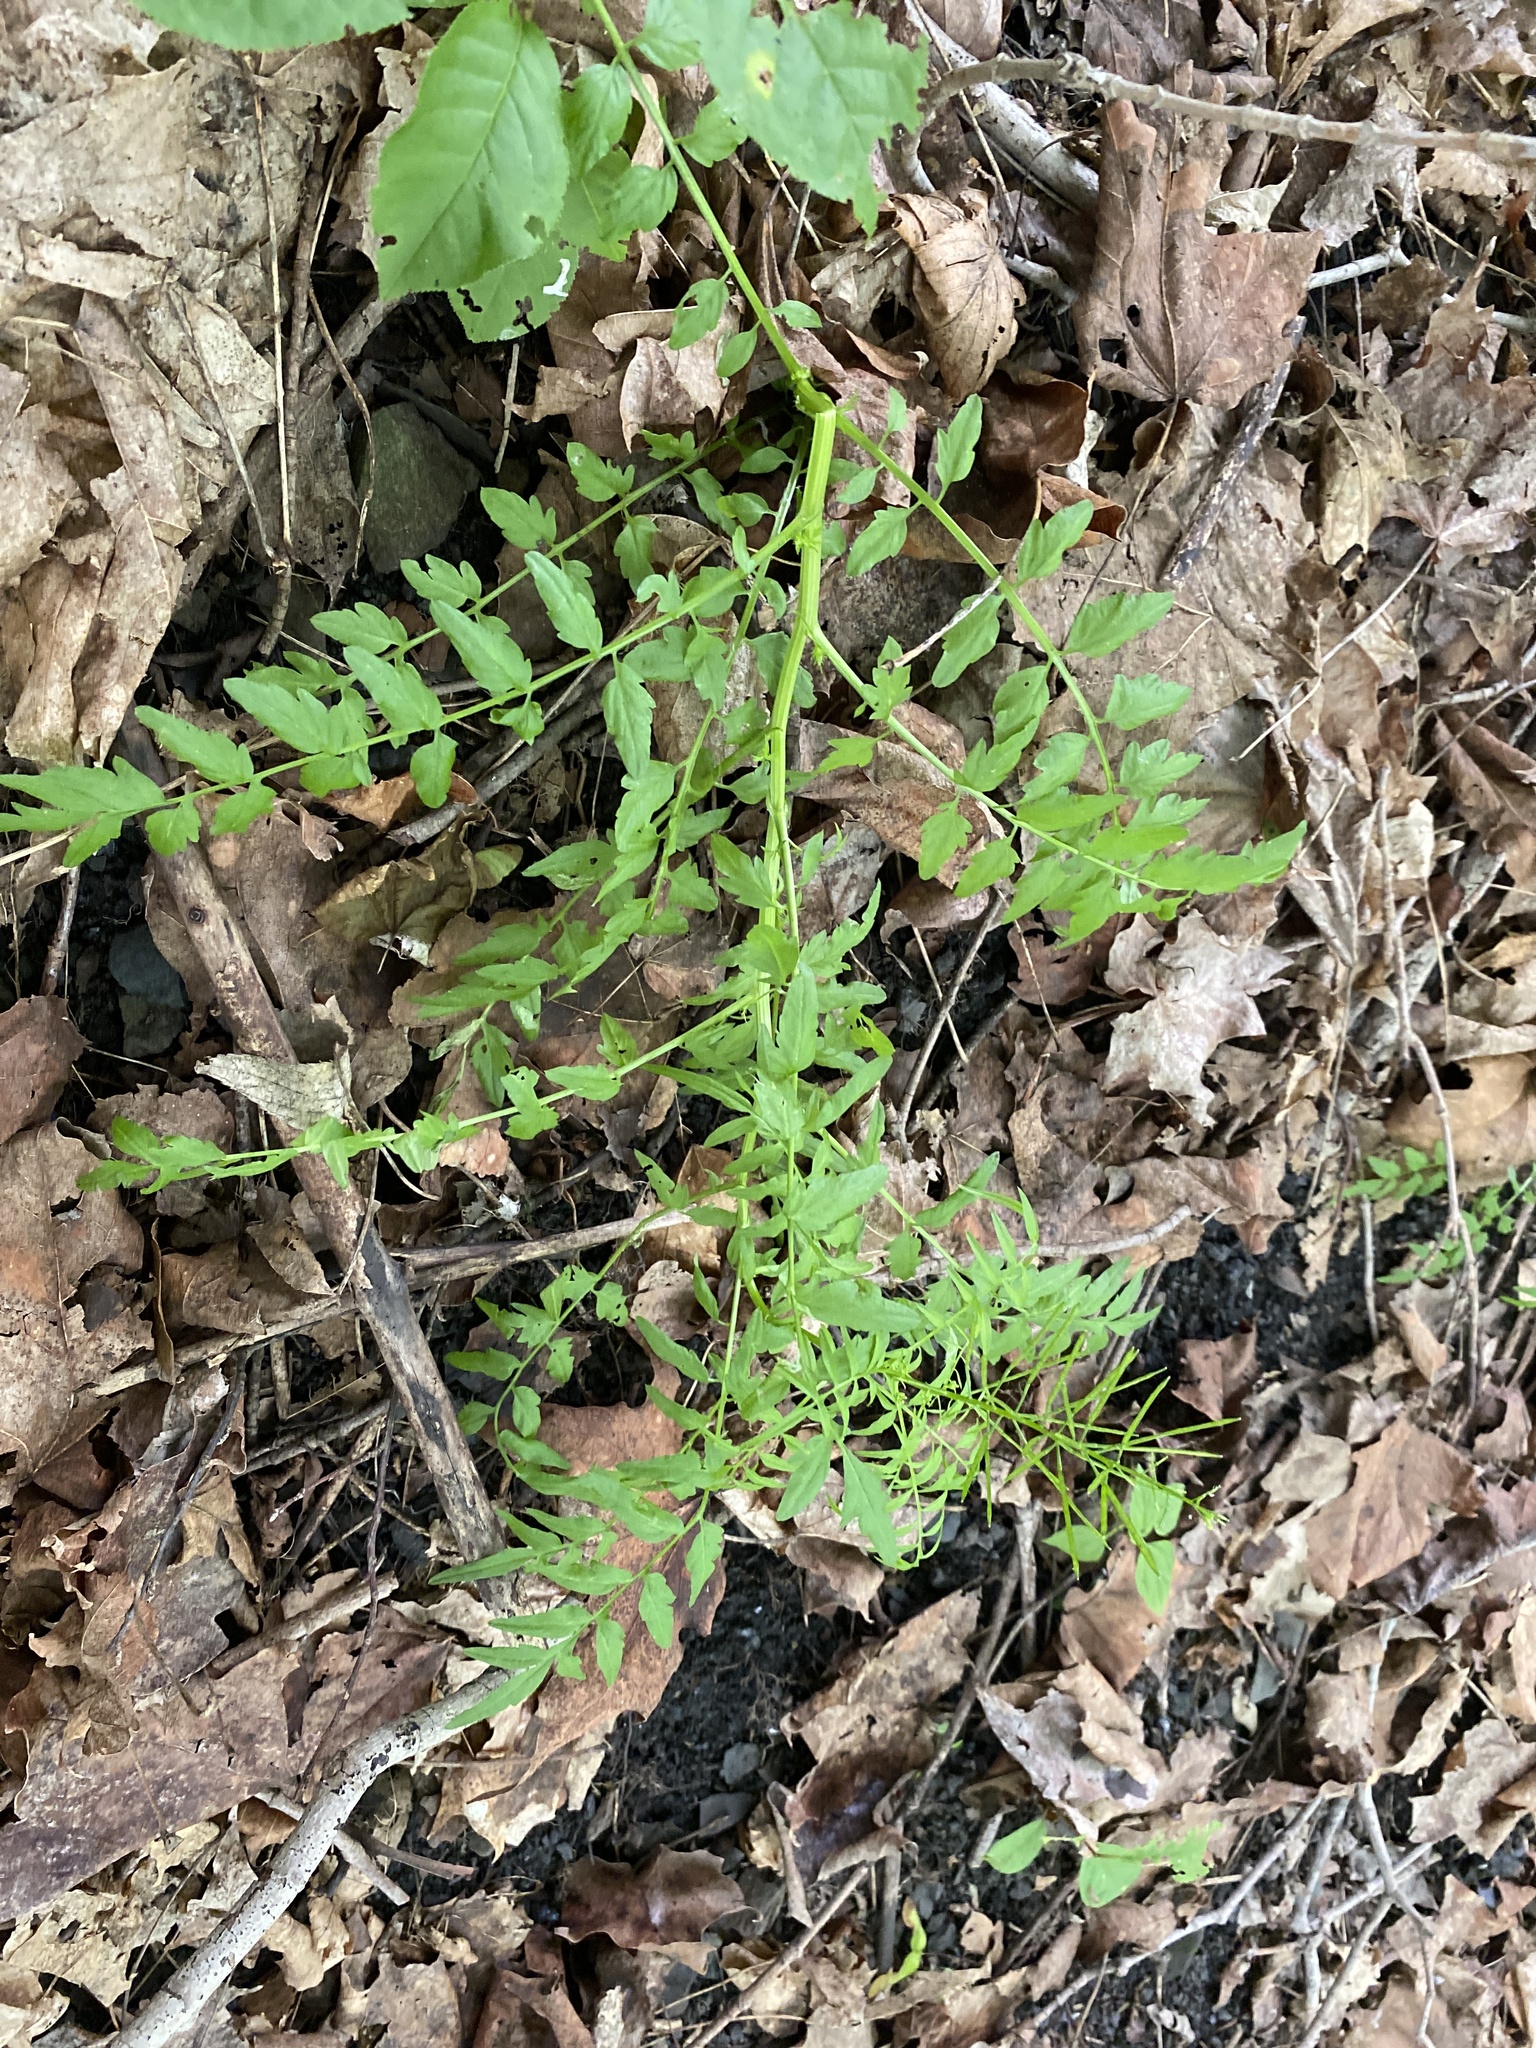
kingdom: Plantae
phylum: Tracheophyta
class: Magnoliopsida
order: Brassicales
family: Brassicaceae
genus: Cardamine
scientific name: Cardamine impatiens
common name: Narrow-leaved bitter-cress
